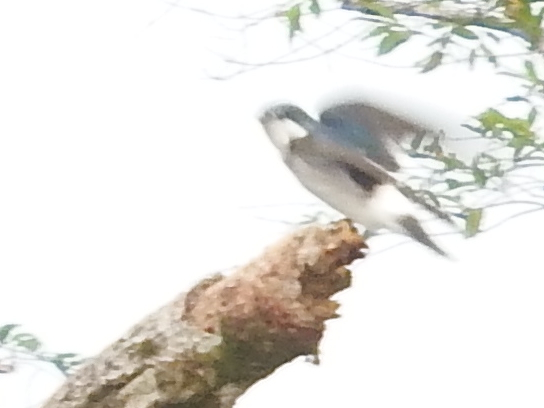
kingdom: Animalia
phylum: Chordata
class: Aves
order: Passeriformes
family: Hirundinidae
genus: Tachycineta
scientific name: Tachycineta albilinea
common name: Mangrove swallow
